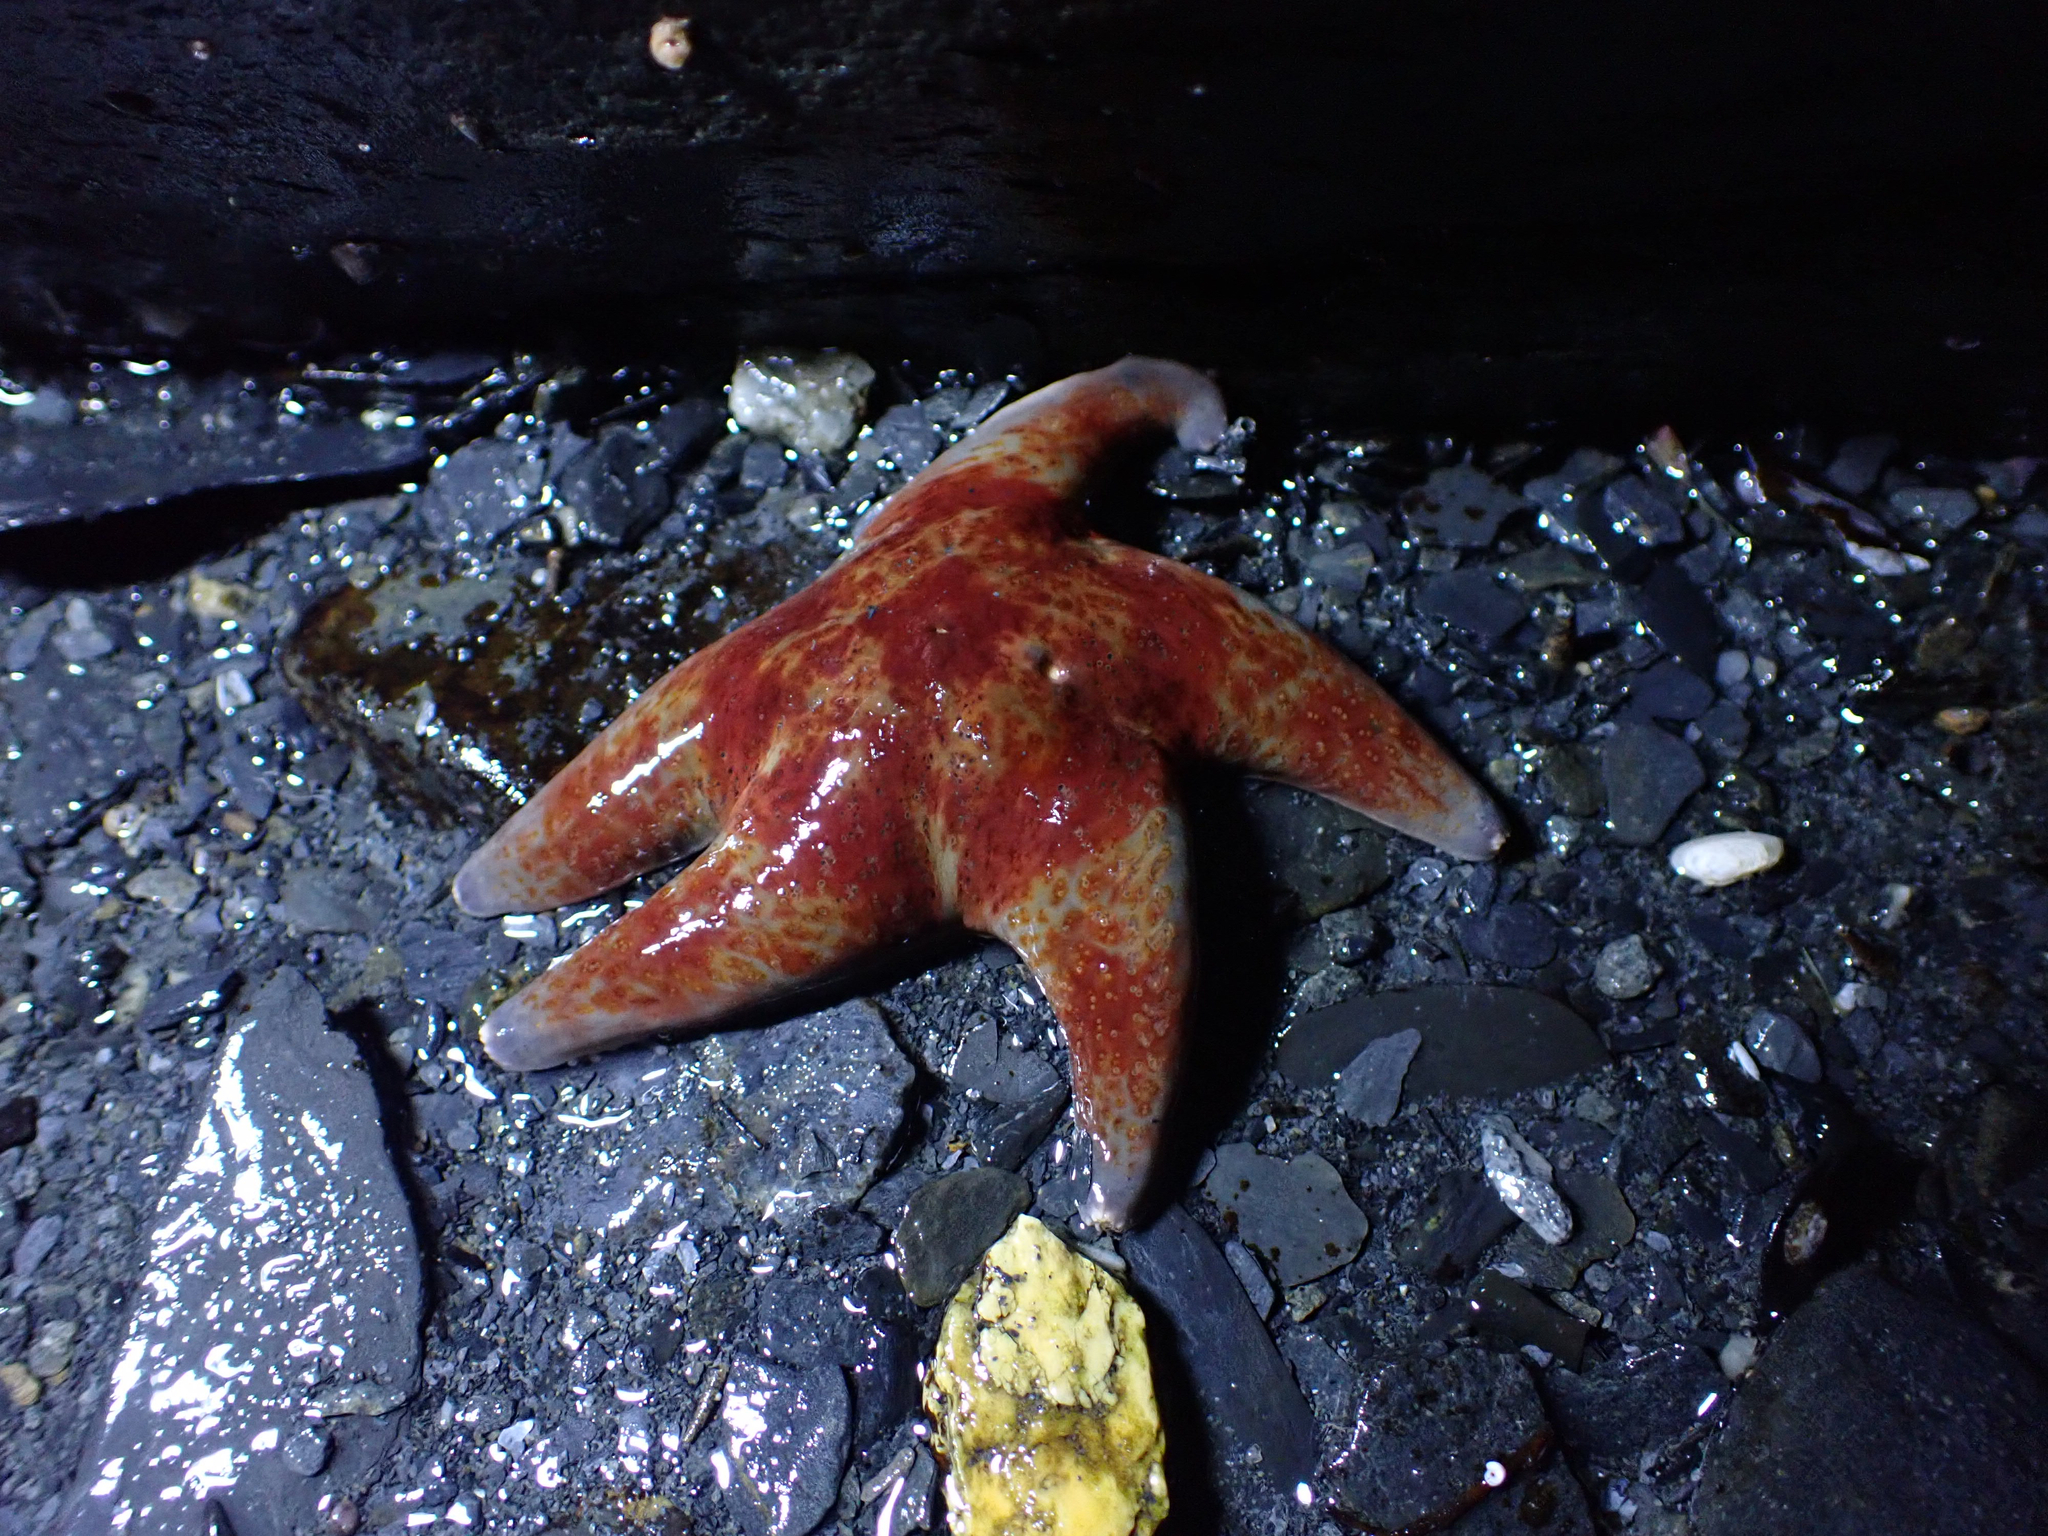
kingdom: Animalia
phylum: Echinodermata
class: Asteroidea
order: Valvatida
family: Asteropseidae
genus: Dermasterias
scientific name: Dermasterias imbricata
